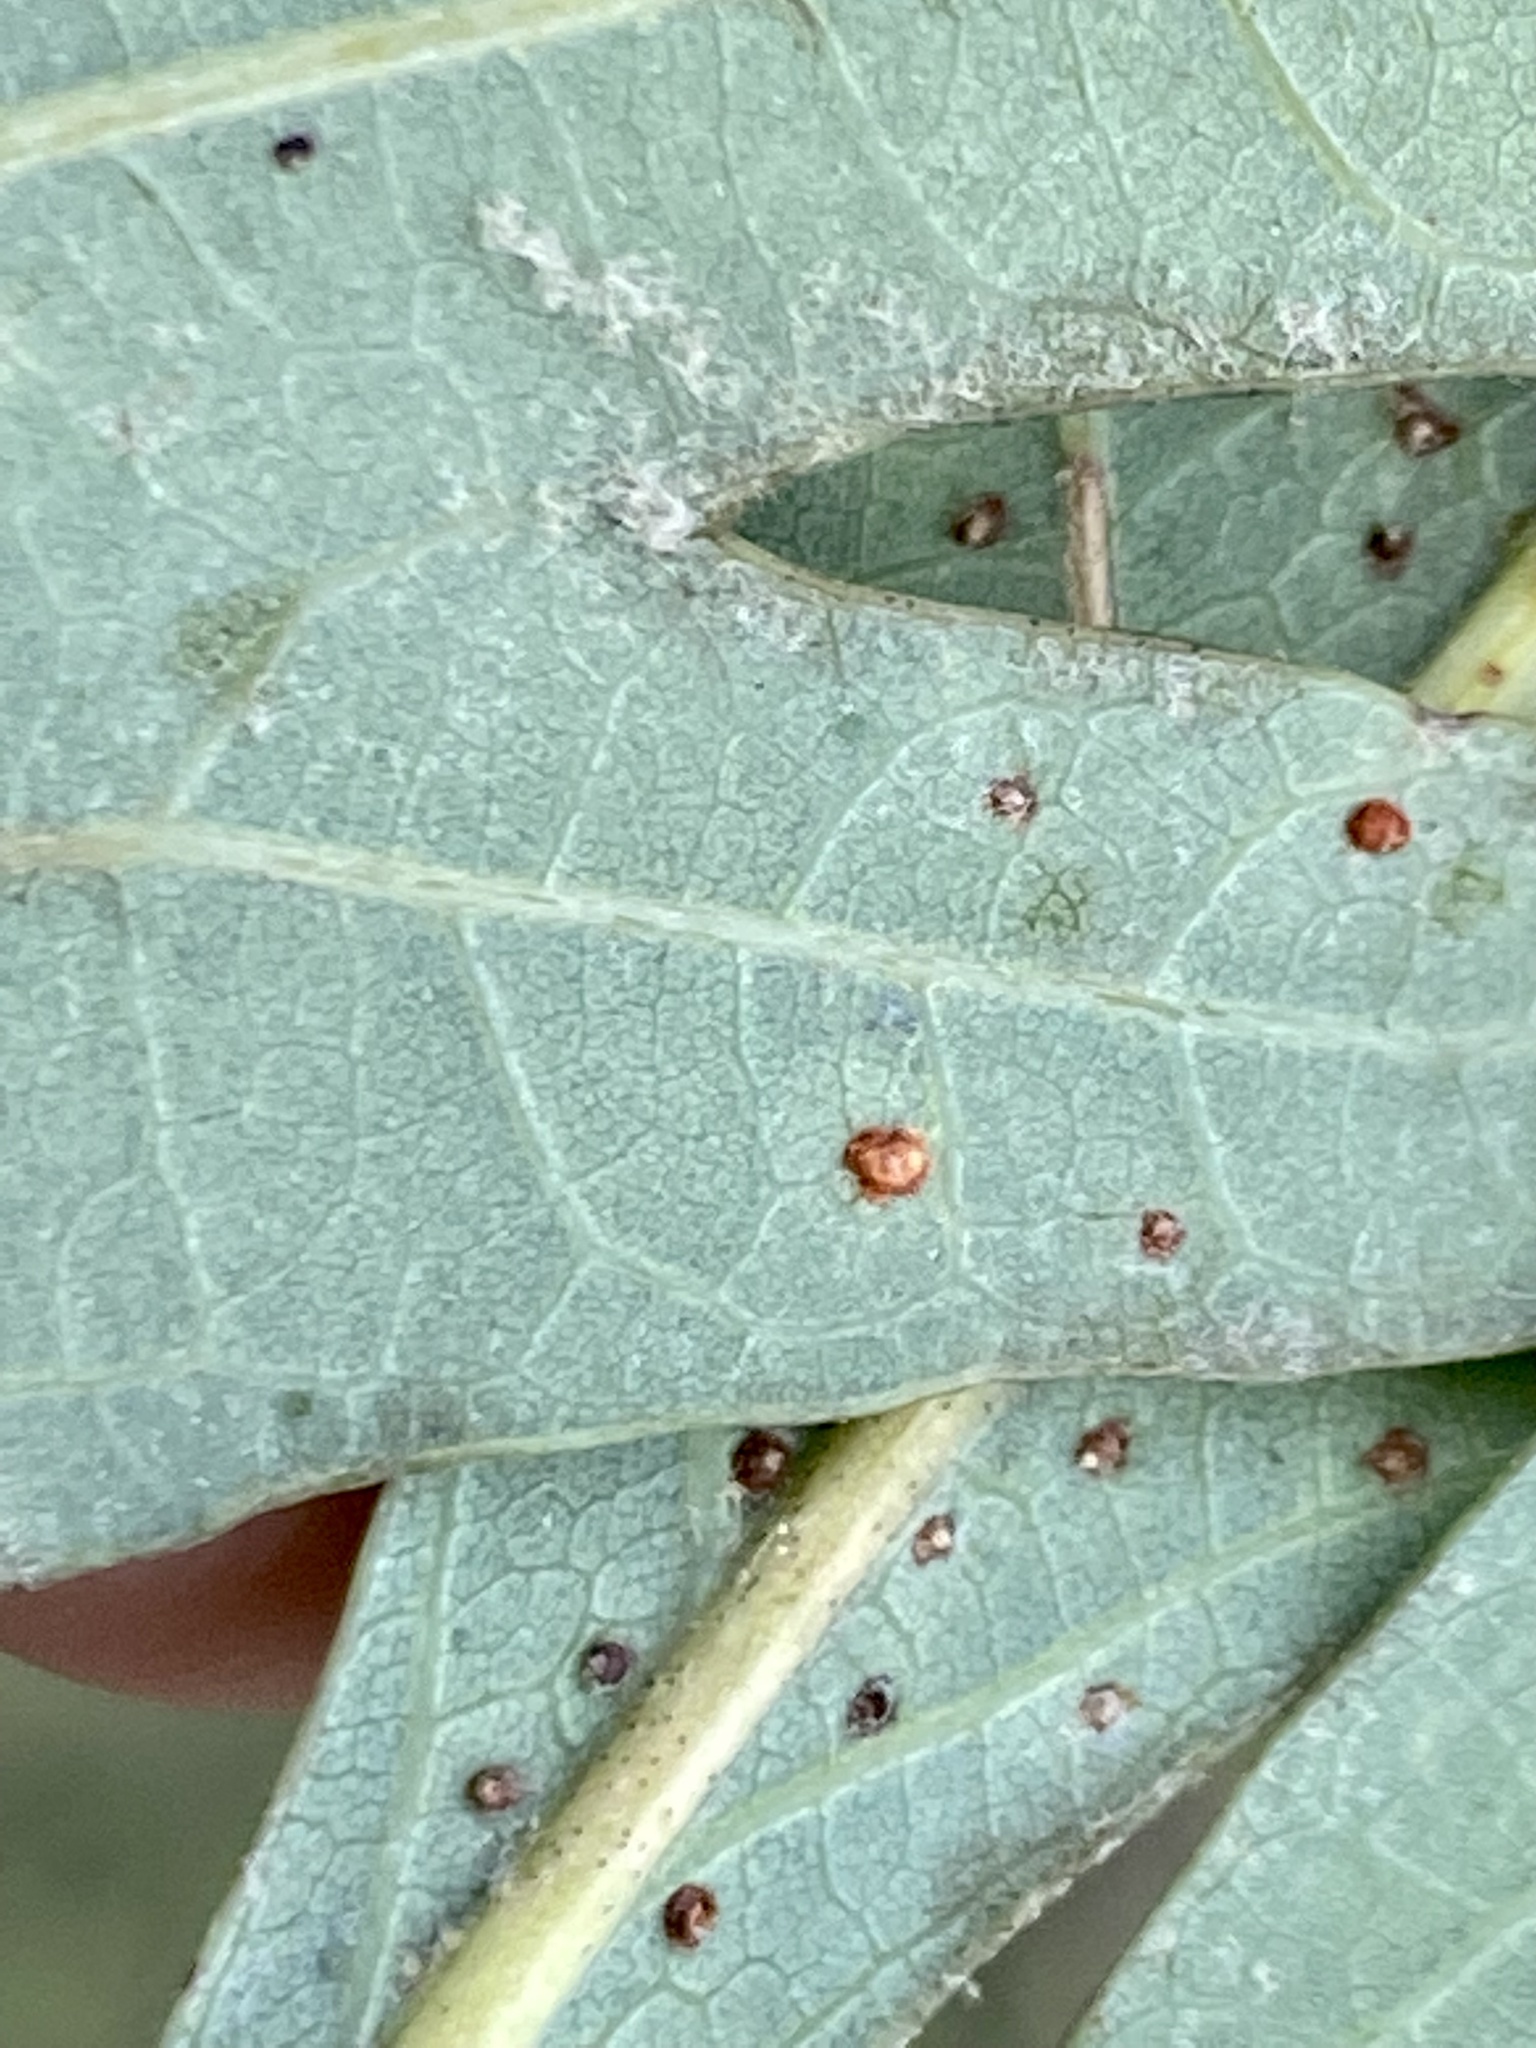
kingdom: Animalia
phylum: Arthropoda
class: Insecta
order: Hymenoptera
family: Cynipidae
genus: Neuroterus
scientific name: Neuroterus
